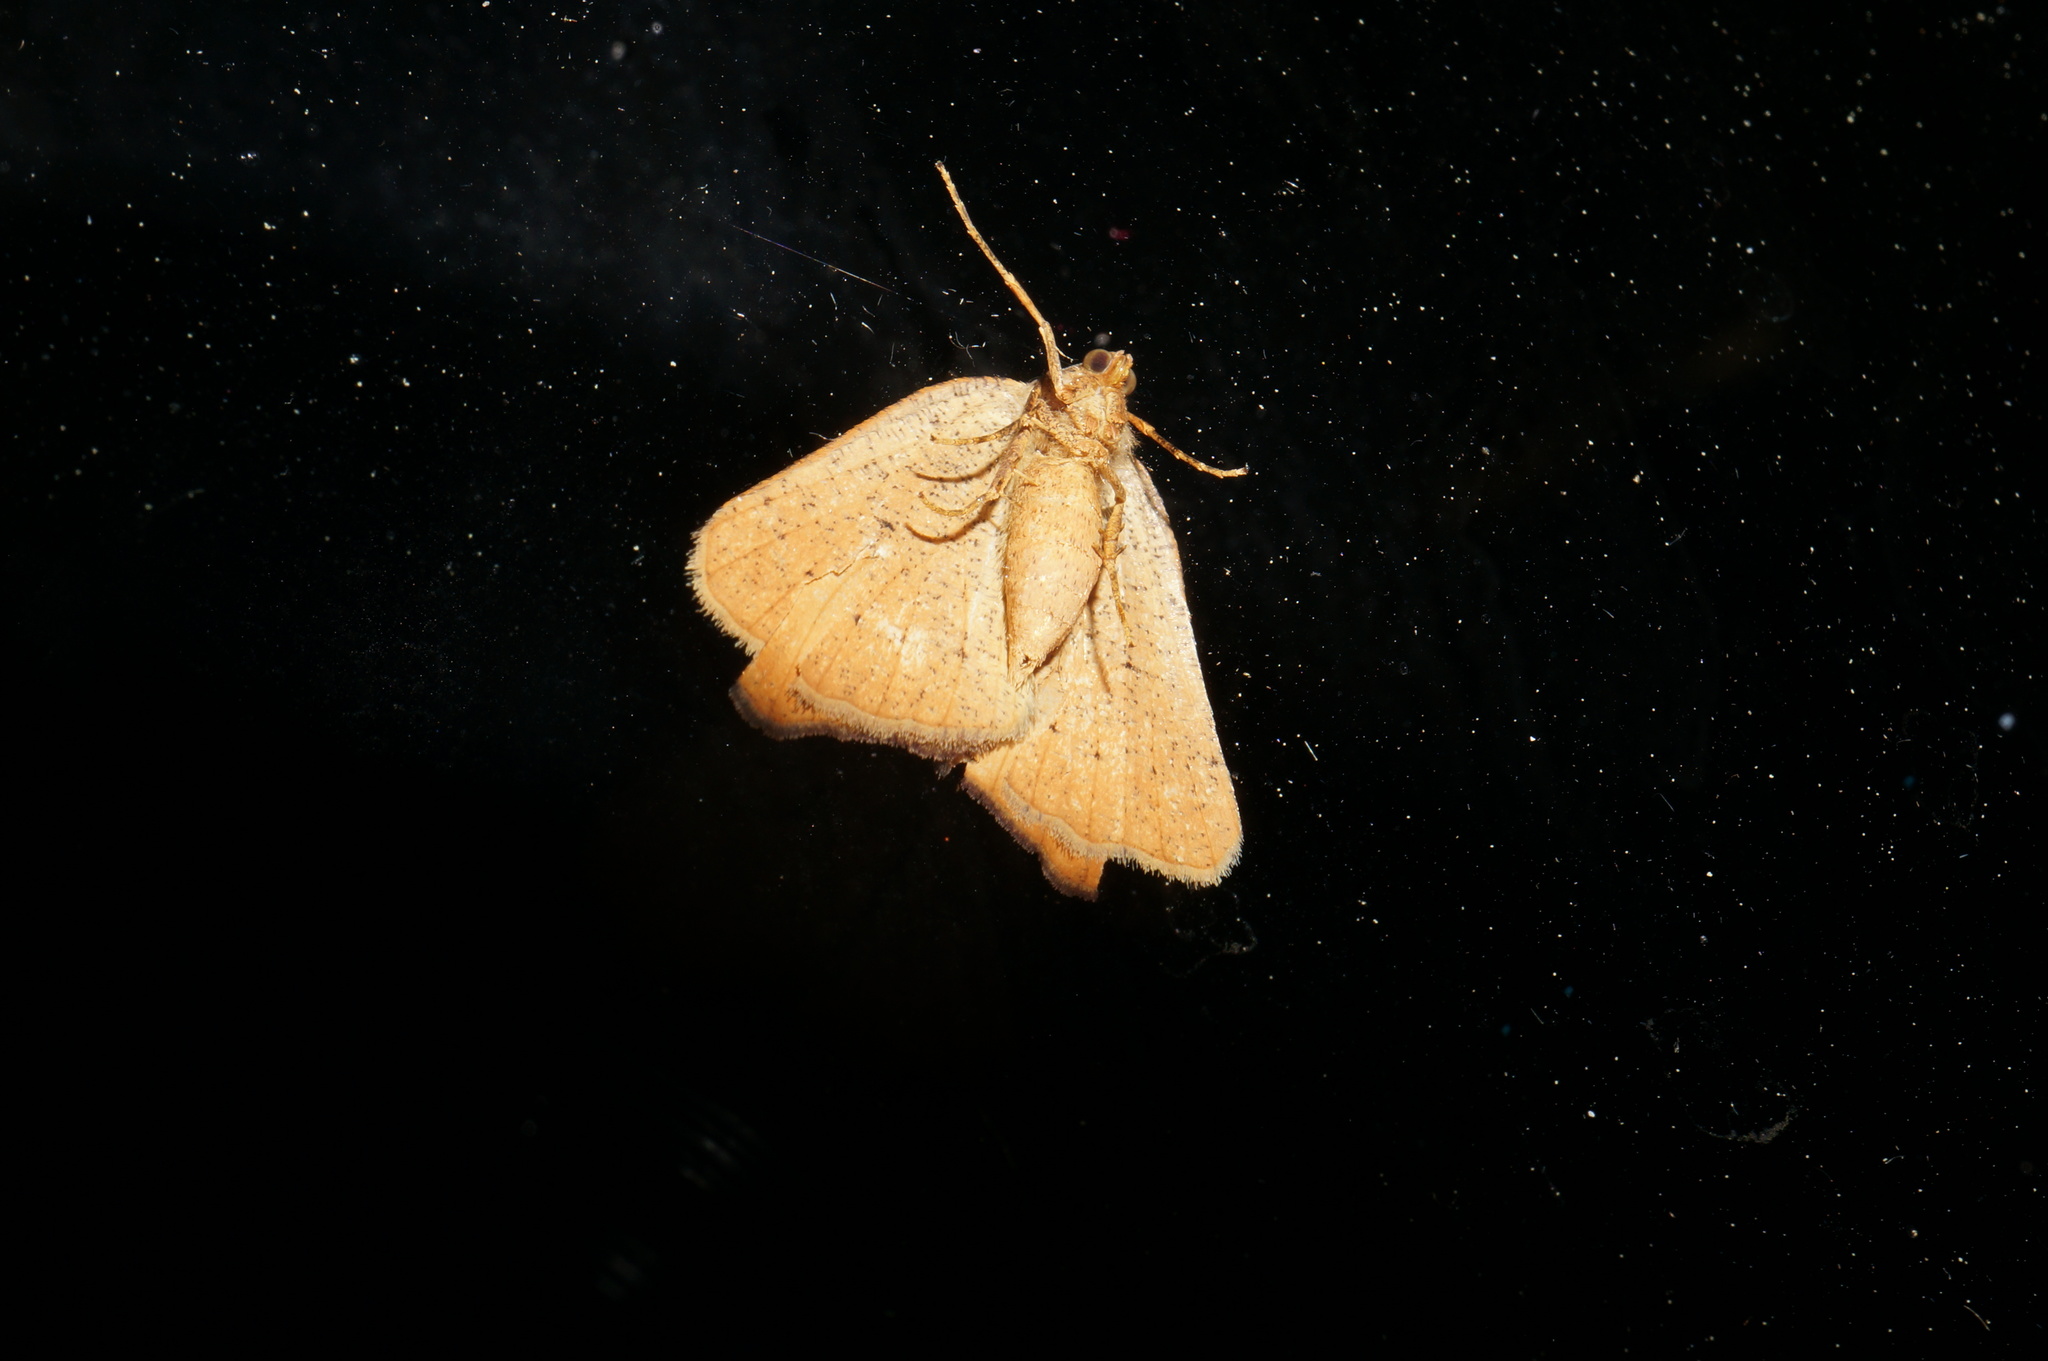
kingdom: Animalia
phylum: Arthropoda
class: Insecta
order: Lepidoptera
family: Geometridae
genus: Sestra
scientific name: Sestra humeraria
